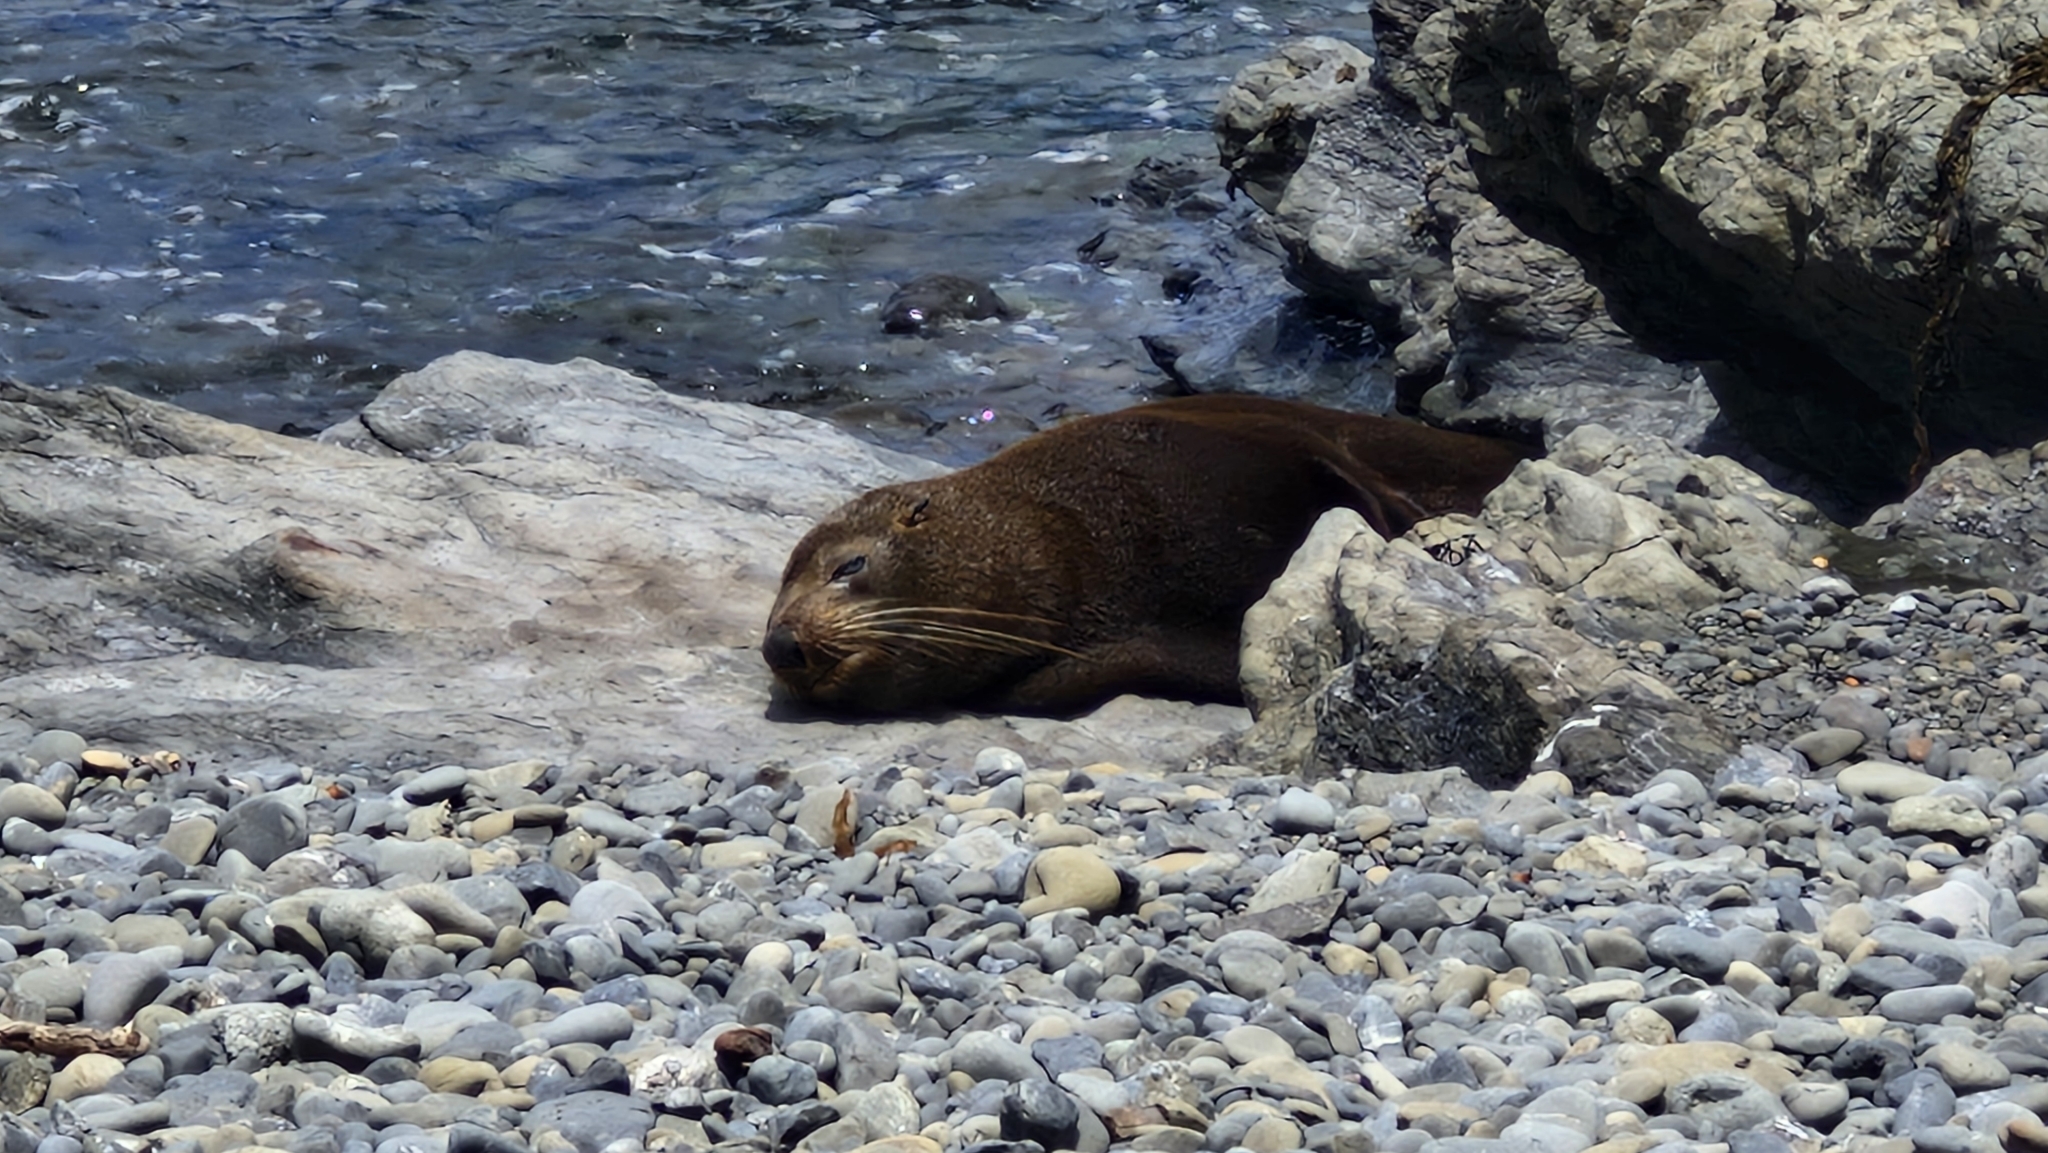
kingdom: Animalia
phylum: Chordata
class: Mammalia
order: Carnivora
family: Otariidae
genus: Arctocephalus
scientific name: Arctocephalus forsteri
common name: New zealand fur seal
